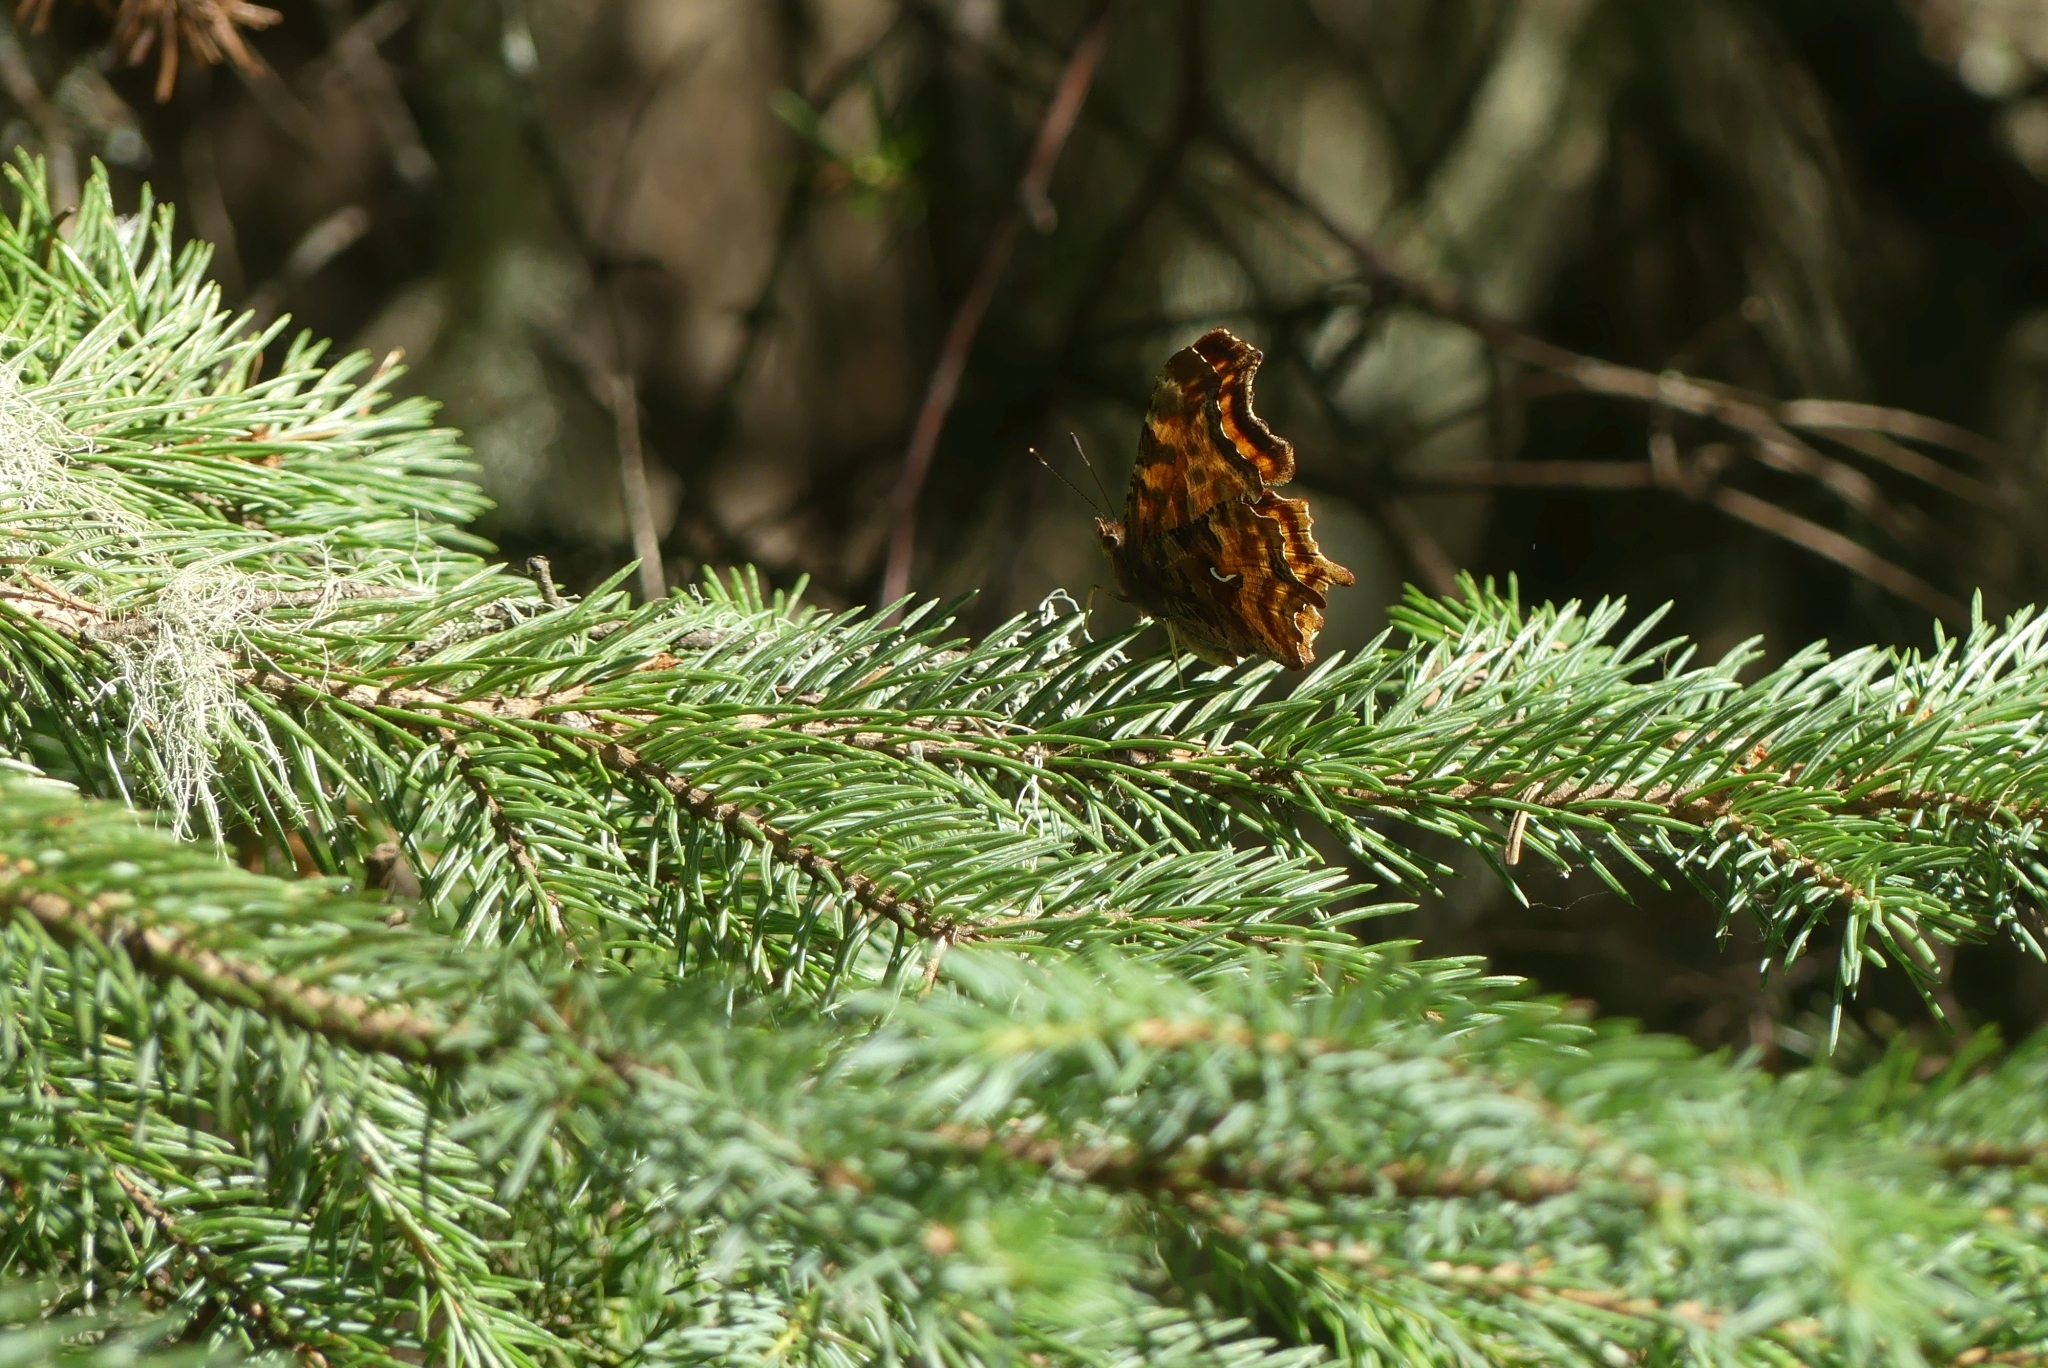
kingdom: Animalia
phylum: Arthropoda
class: Insecta
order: Lepidoptera
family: Nymphalidae
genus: Polygonia
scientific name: Polygonia satyrus
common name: Satyr angle wing
